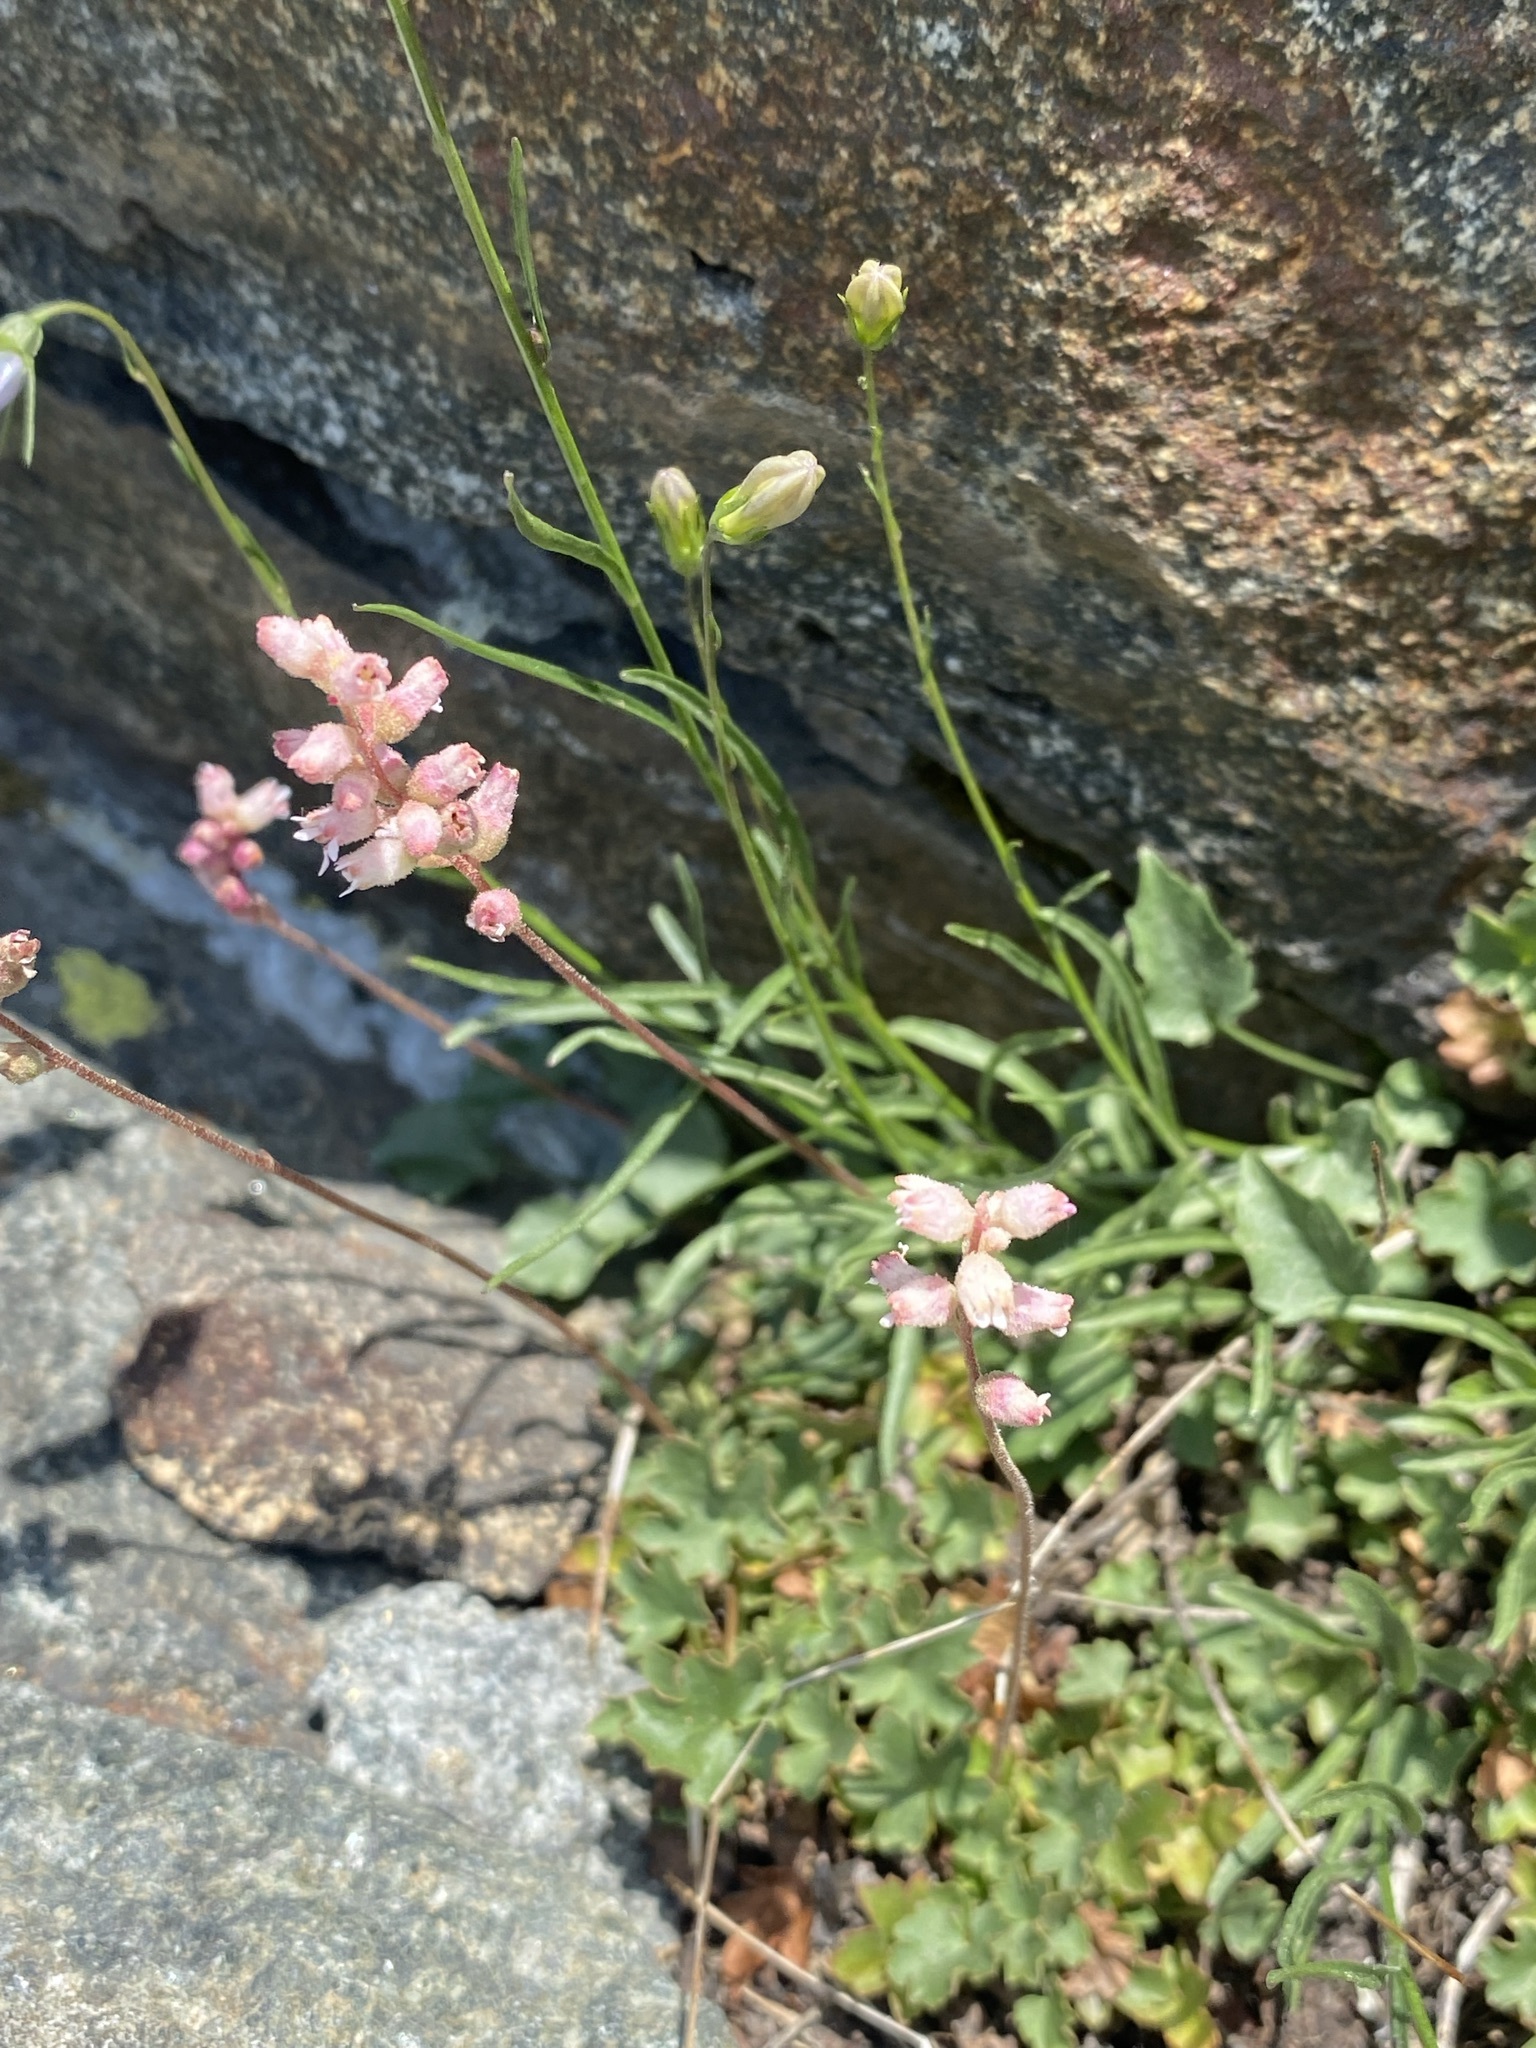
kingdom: Plantae
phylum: Tracheophyta
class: Magnoliopsida
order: Saxifragales
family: Saxifragaceae
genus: Heuchera
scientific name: Heuchera grossulariifolia
